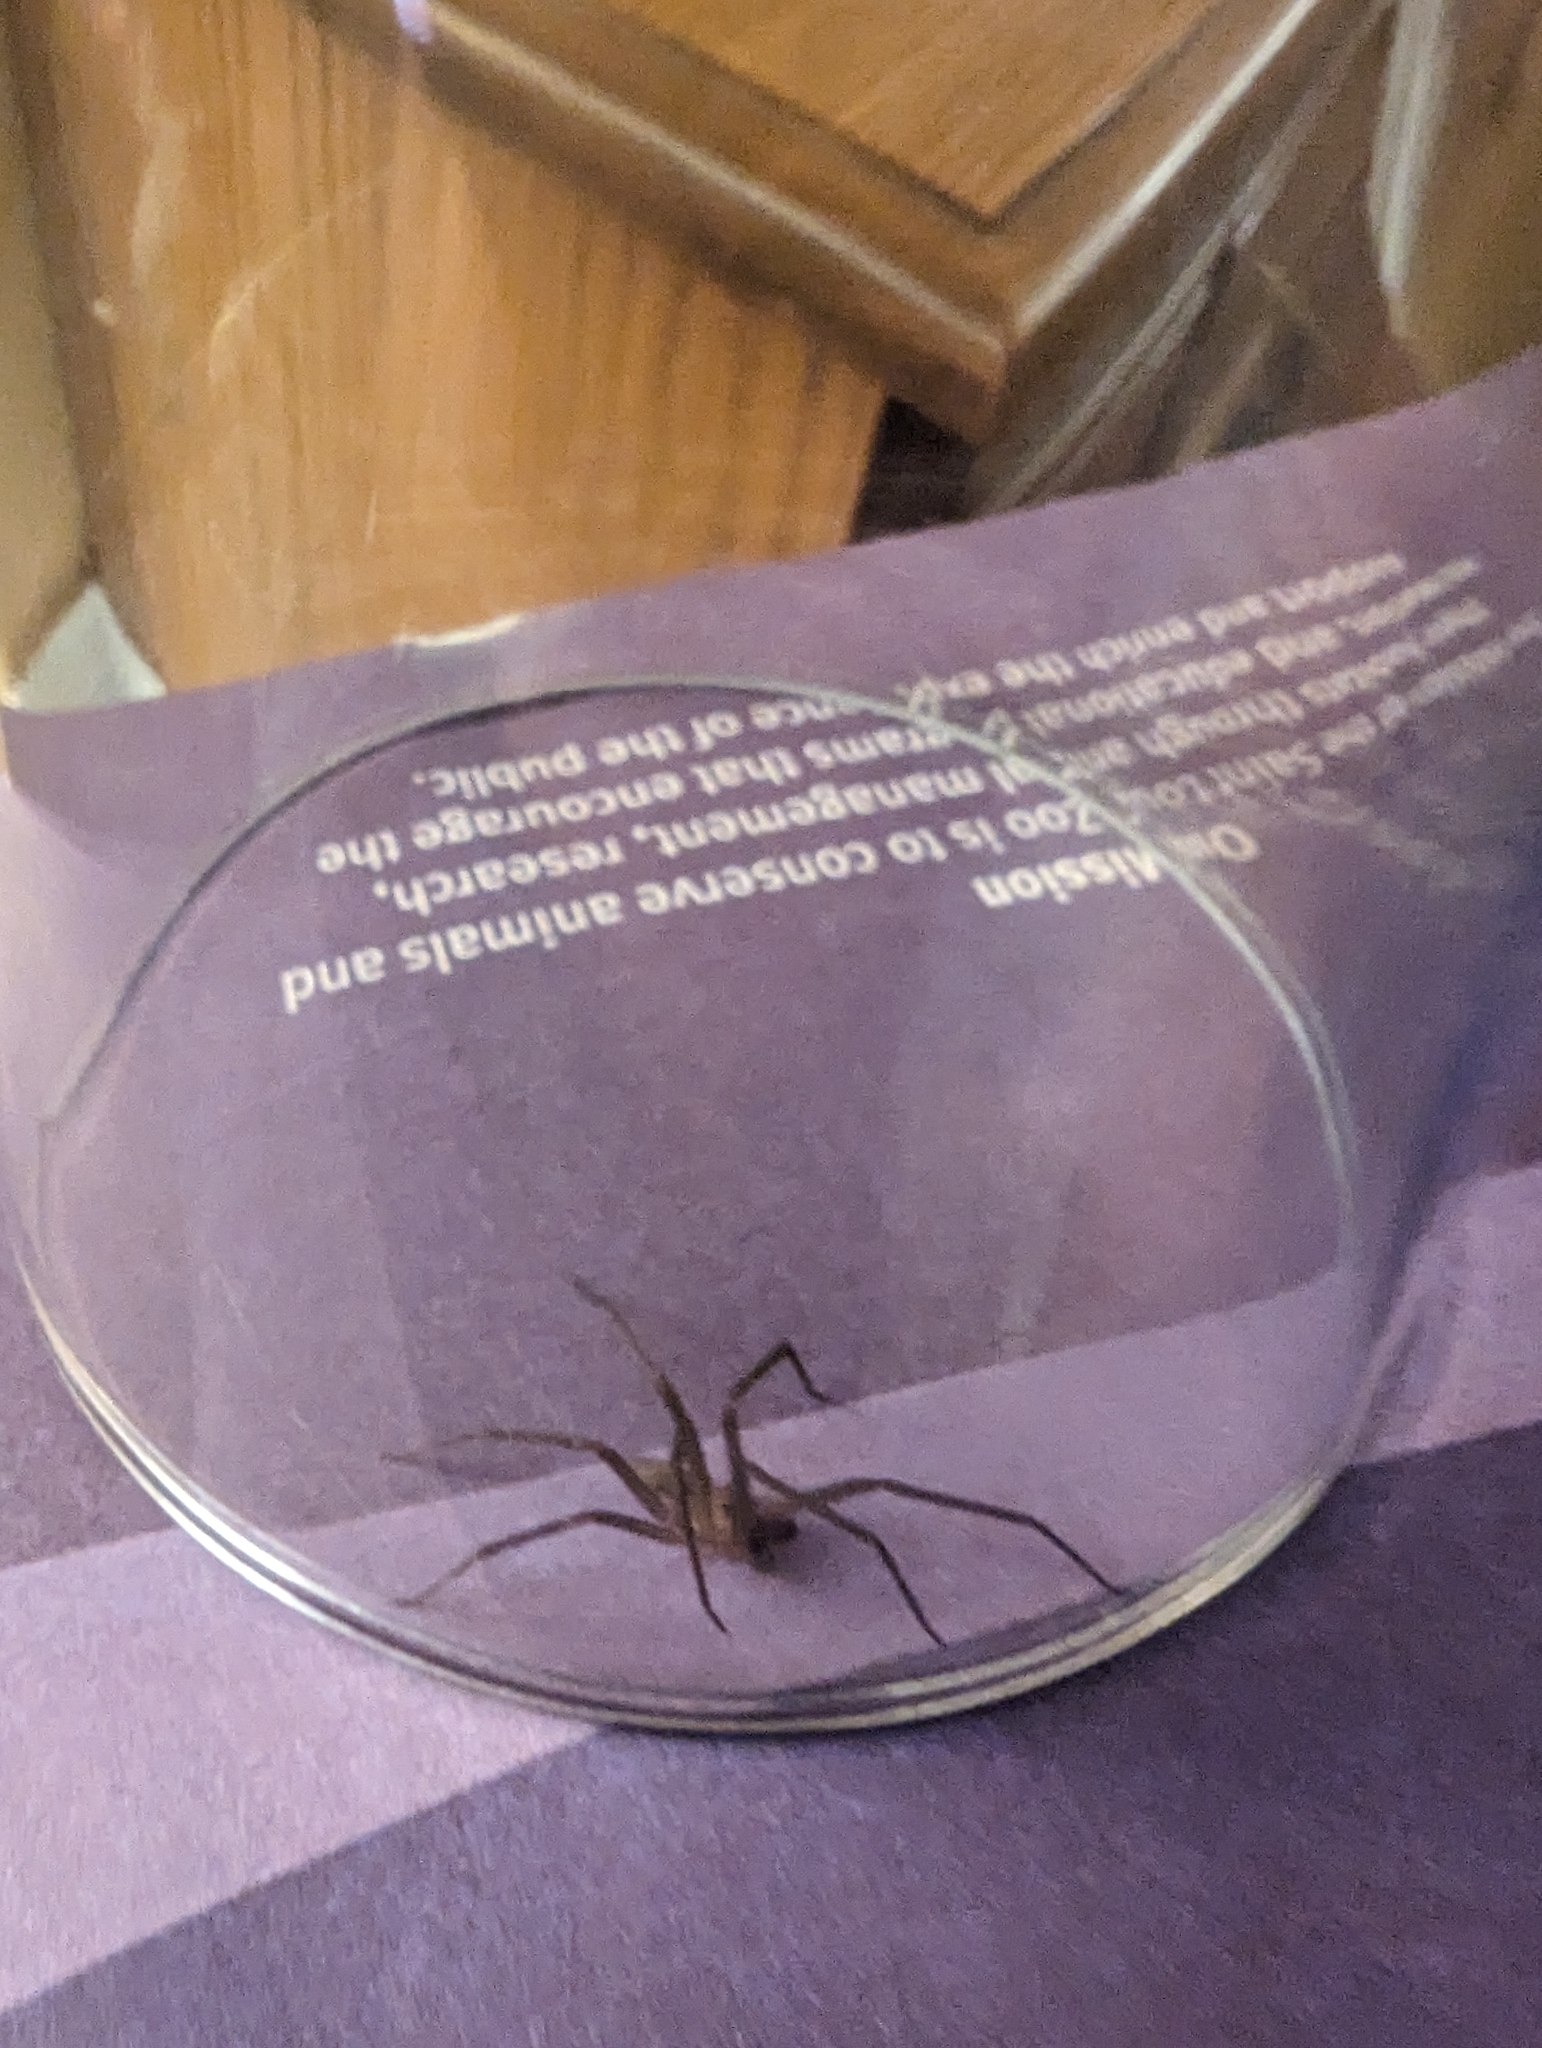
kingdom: Animalia
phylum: Arthropoda
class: Arachnida
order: Araneae
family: Sicariidae
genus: Loxosceles
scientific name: Loxosceles reclusa
